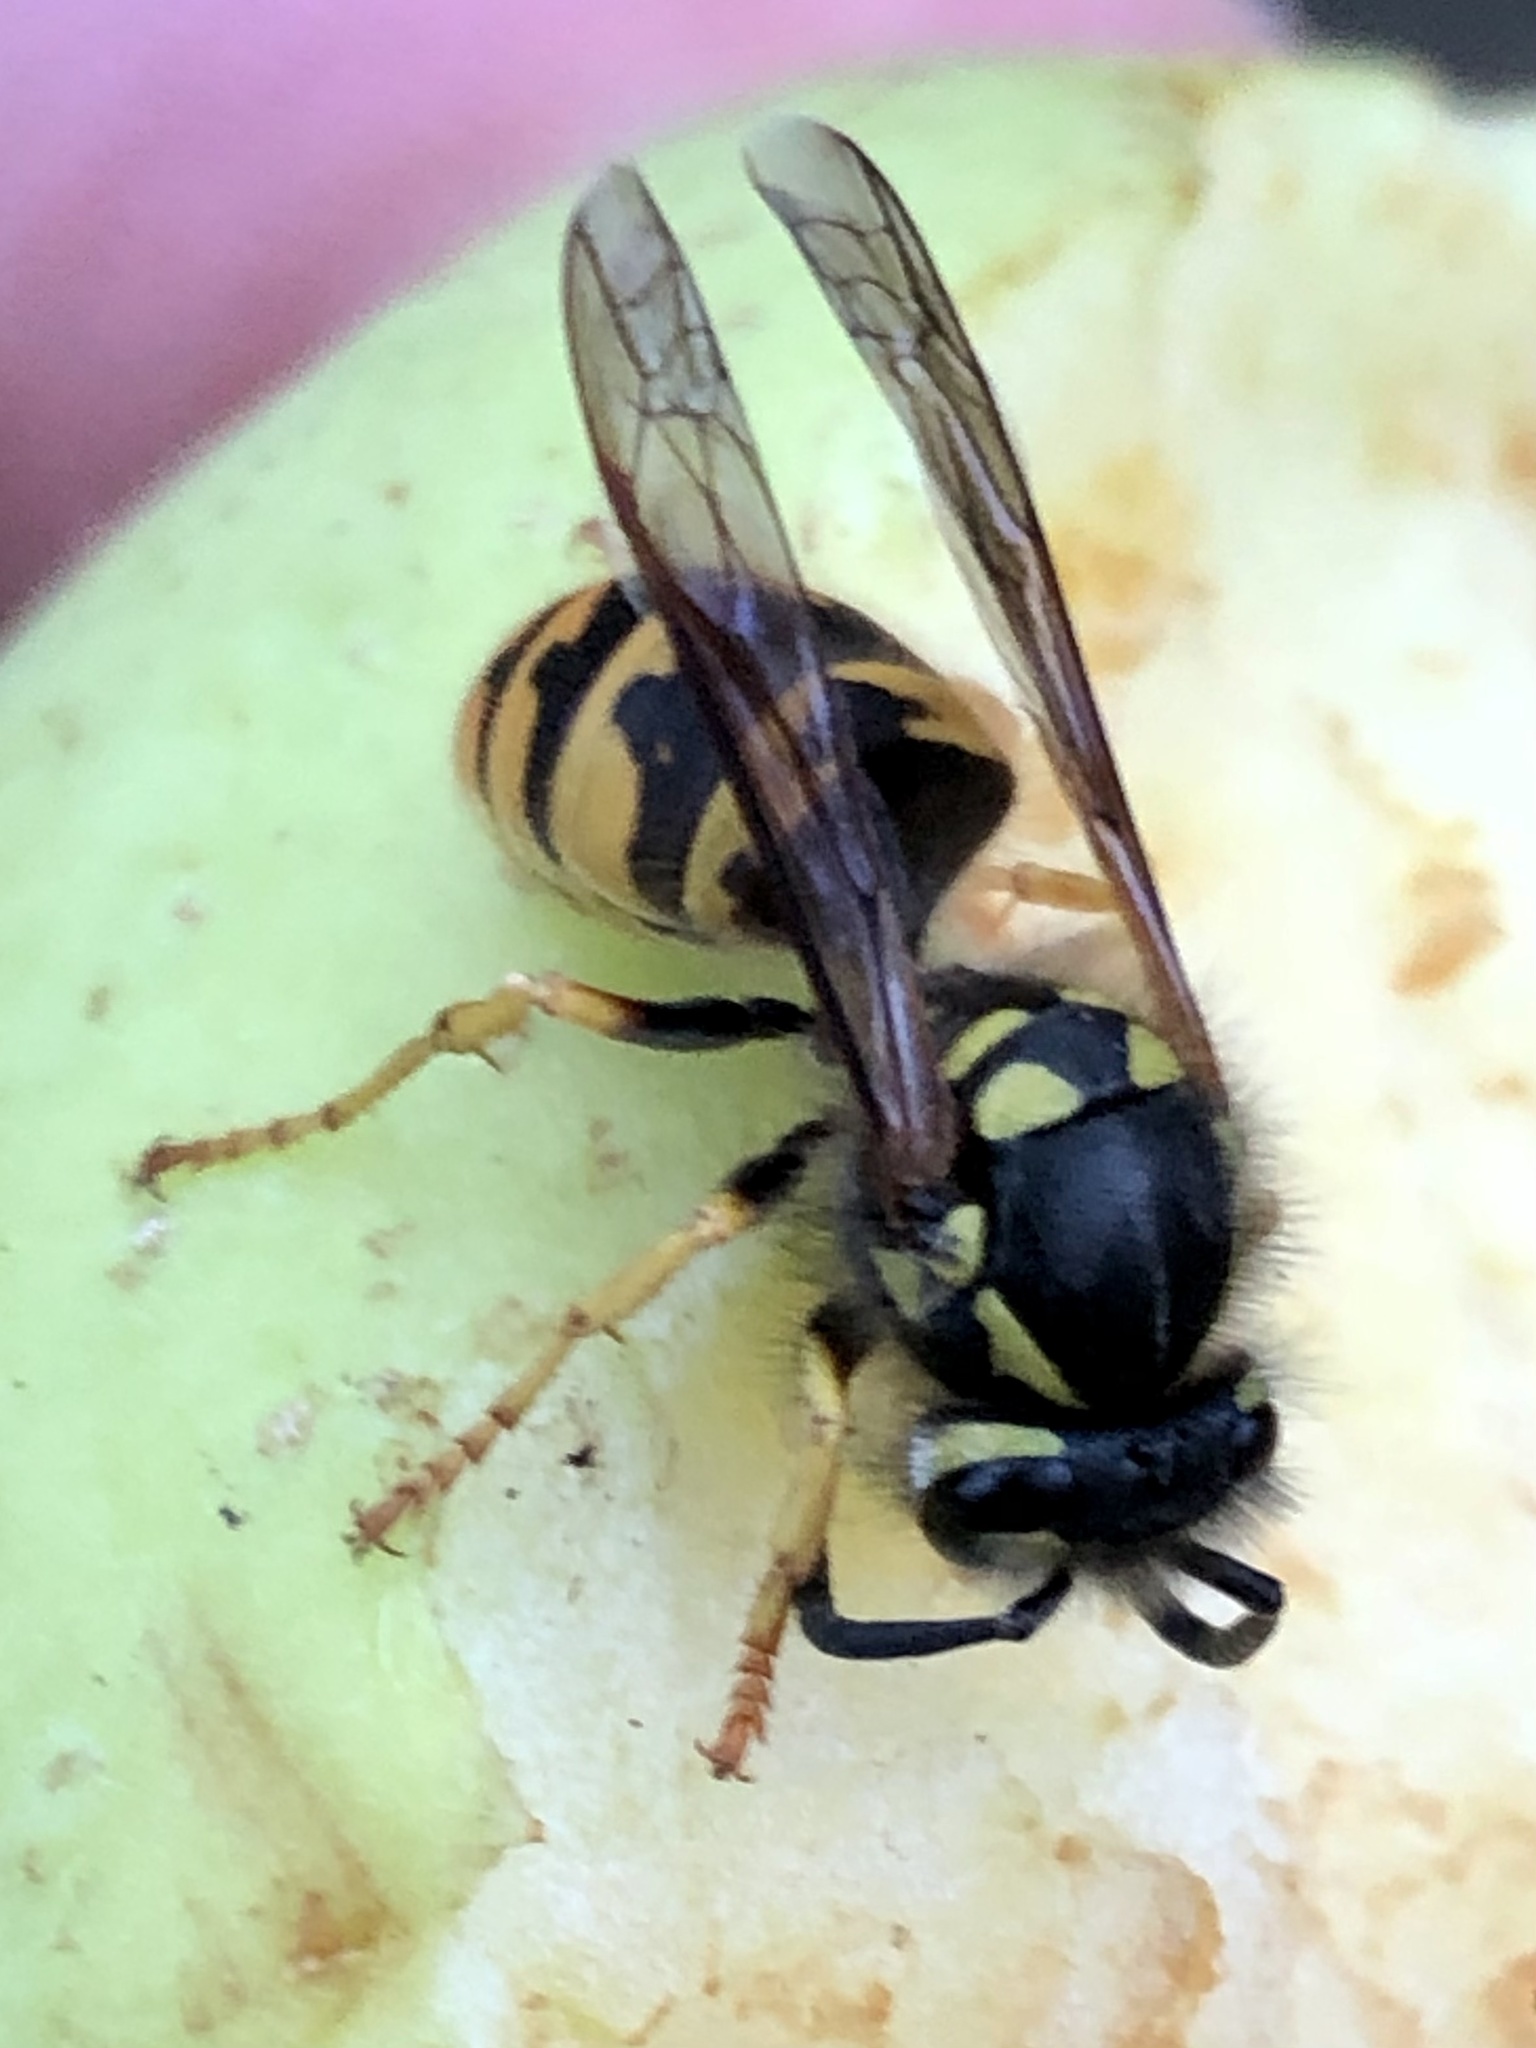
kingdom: Animalia
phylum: Arthropoda
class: Insecta
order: Hymenoptera
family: Vespidae
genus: Vespula
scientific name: Vespula germanica
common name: German wasp
